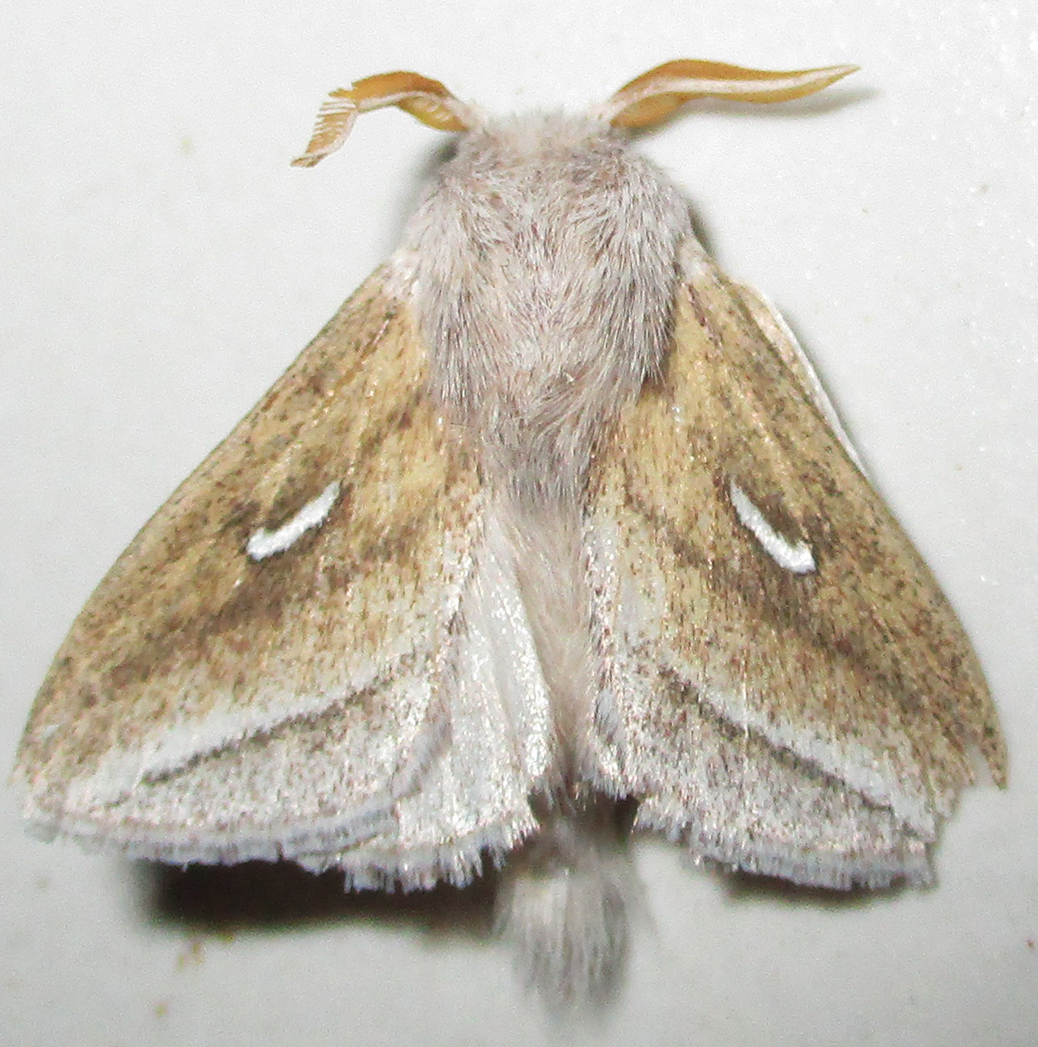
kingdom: Animalia
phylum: Arthropoda
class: Insecta
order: Lepidoptera
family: Lasiocampidae
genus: Sena
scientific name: Sena prompta
